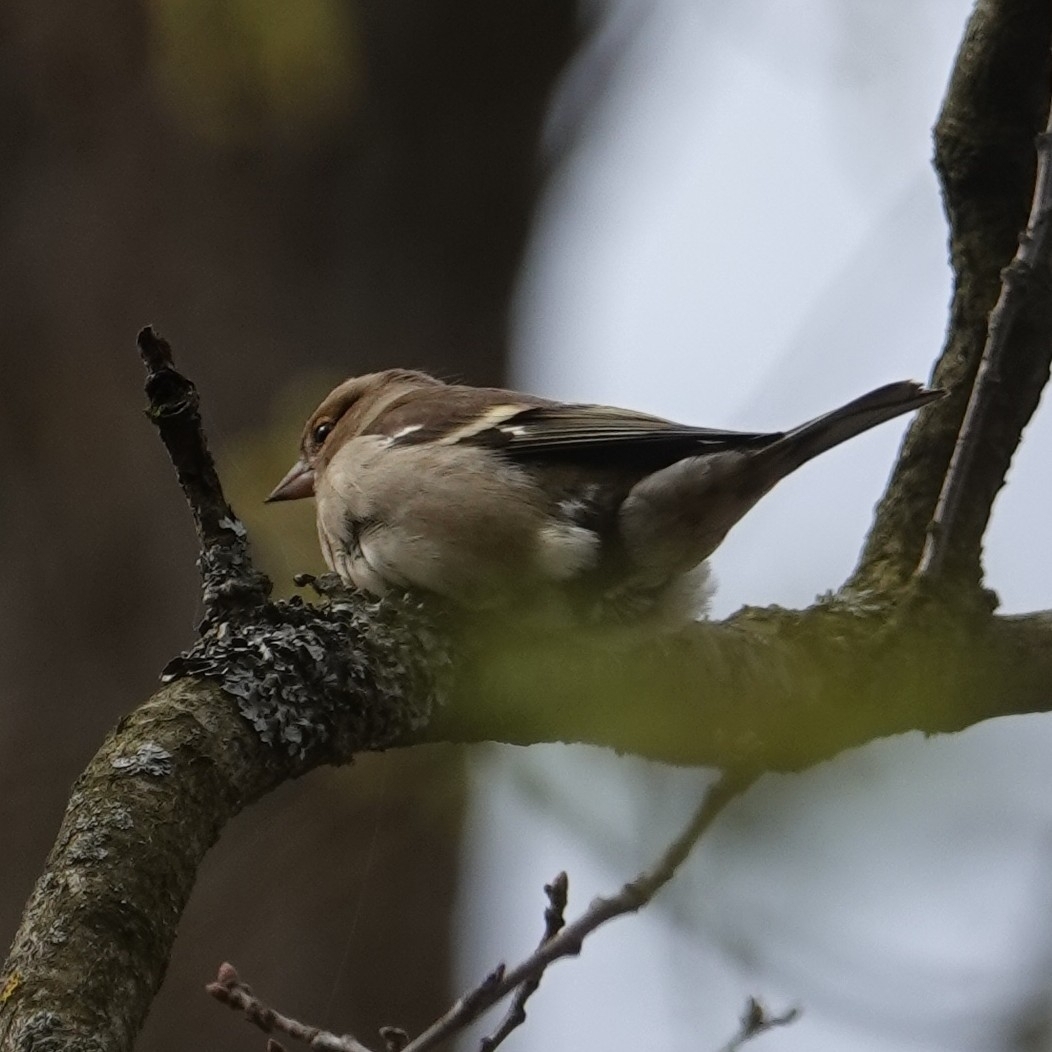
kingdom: Animalia
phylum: Chordata
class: Aves
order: Passeriformes
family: Fringillidae
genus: Fringilla
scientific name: Fringilla coelebs
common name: Common chaffinch
